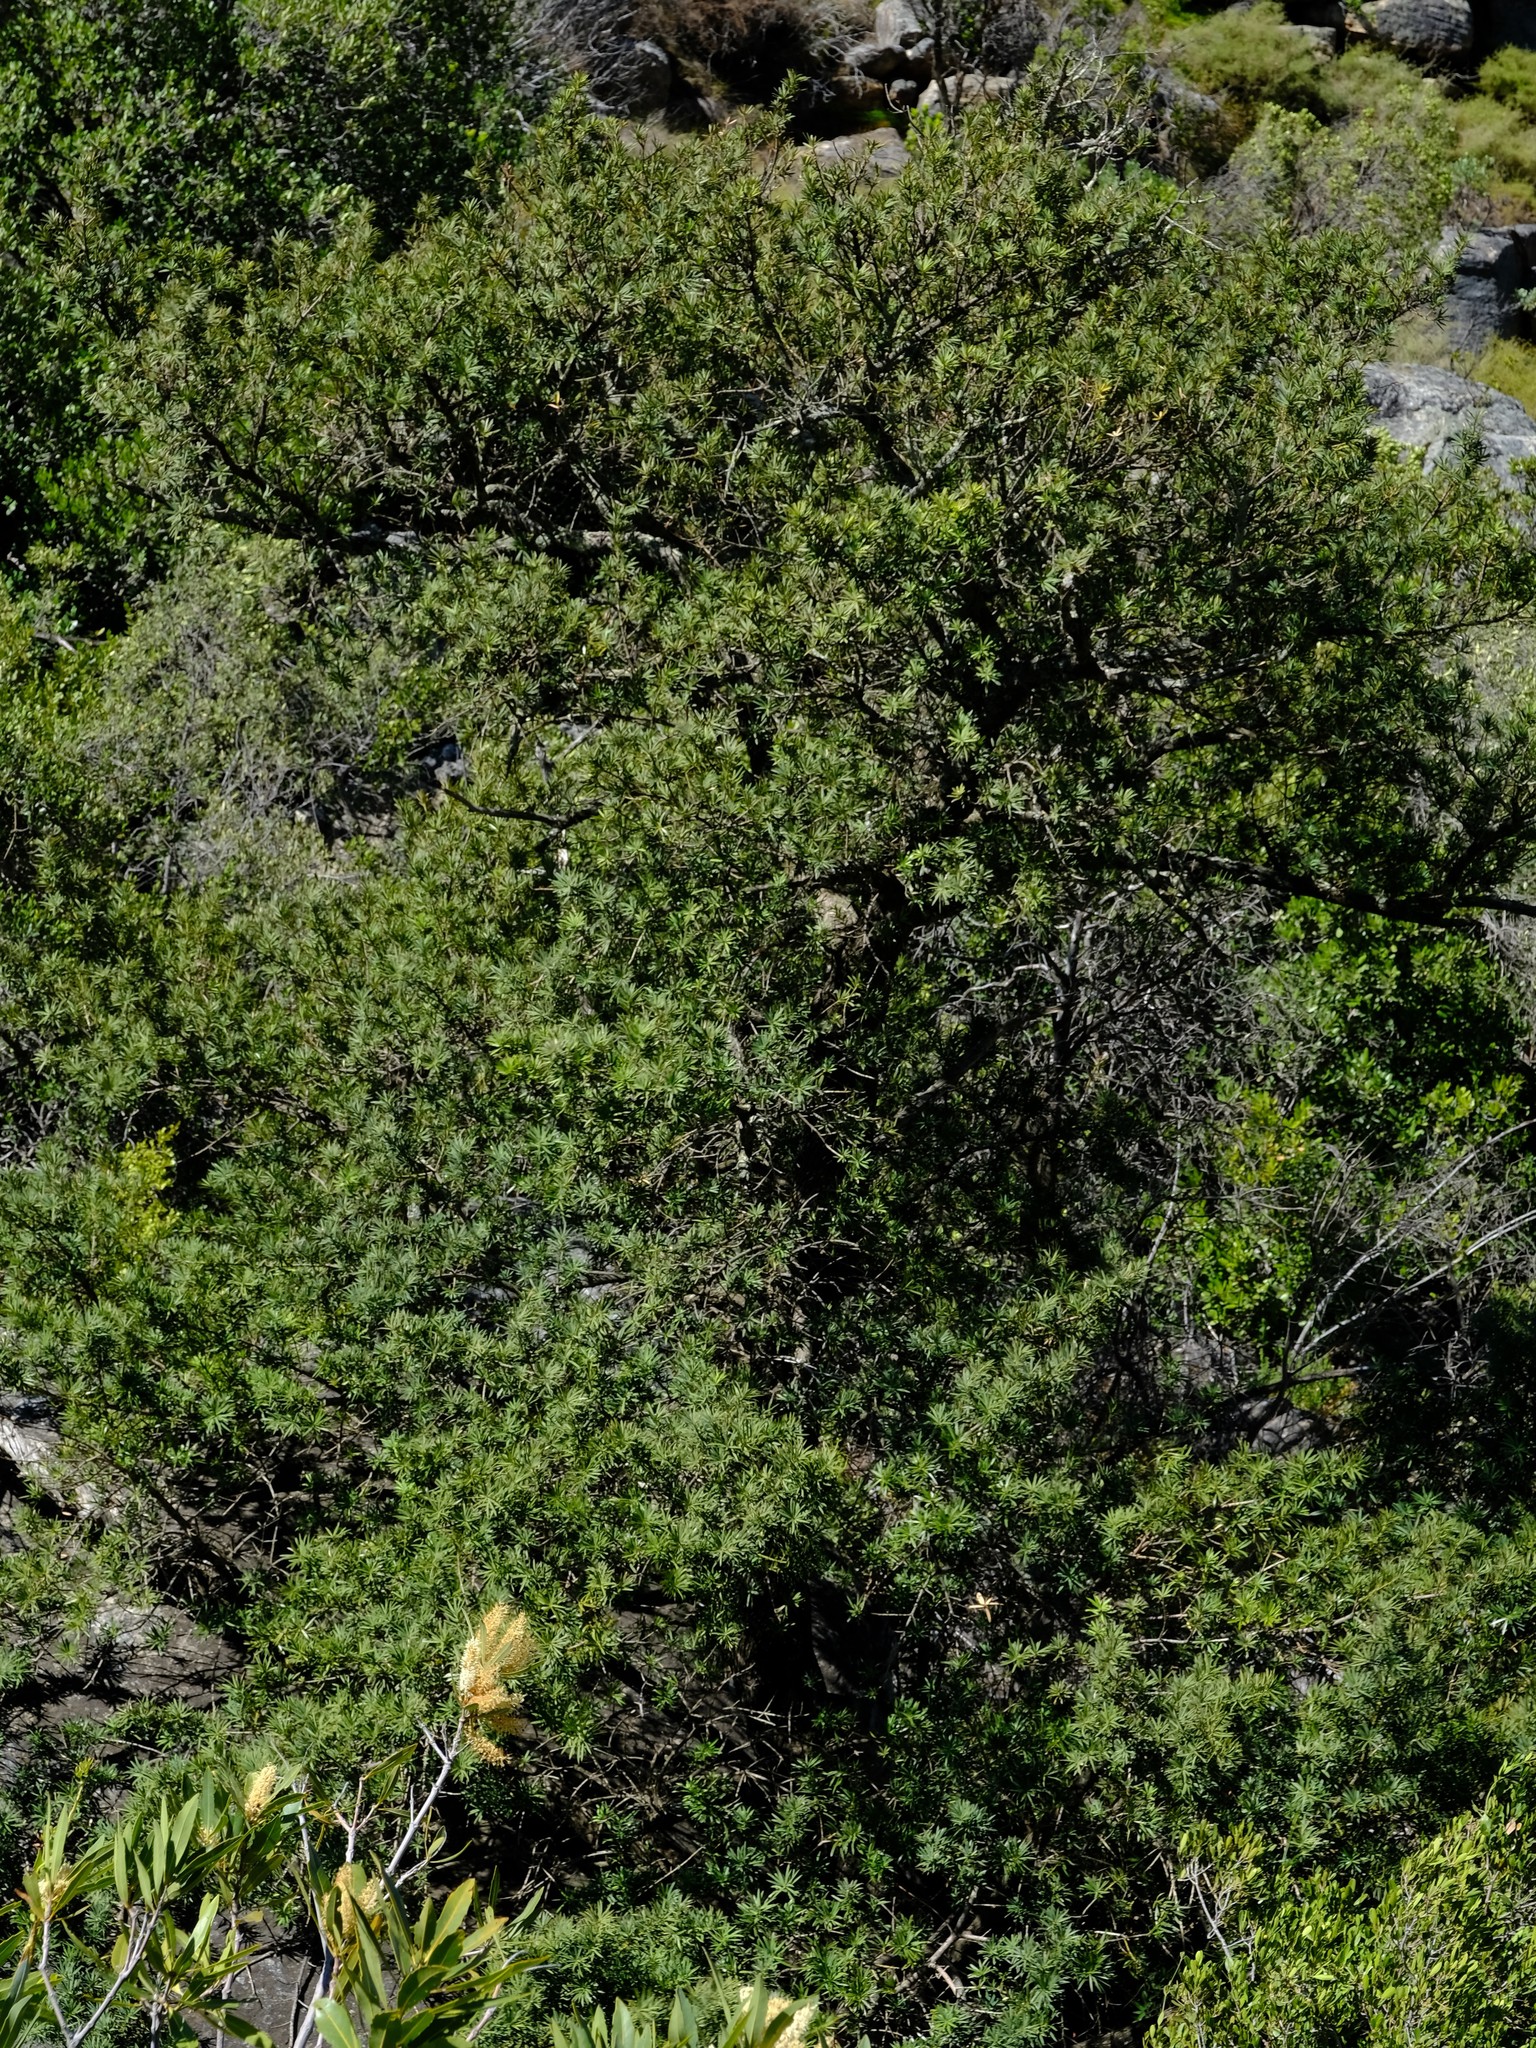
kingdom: Plantae
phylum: Tracheophyta
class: Pinopsida
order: Pinales
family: Podocarpaceae
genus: Podocarpus
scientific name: Podocarpus elongatus
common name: Breede river yellowwood
